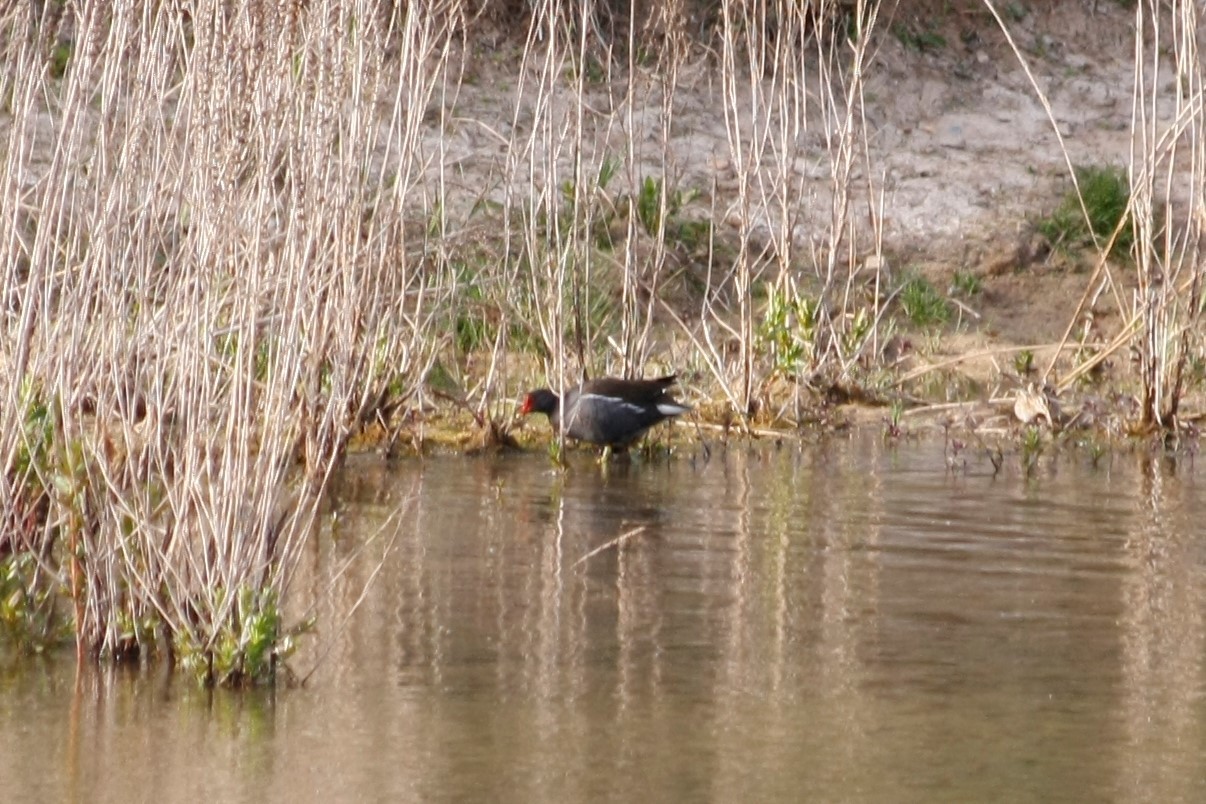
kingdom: Animalia
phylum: Chordata
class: Aves
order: Gruiformes
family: Rallidae
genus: Gallinula
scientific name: Gallinula chloropus
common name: Common moorhen
